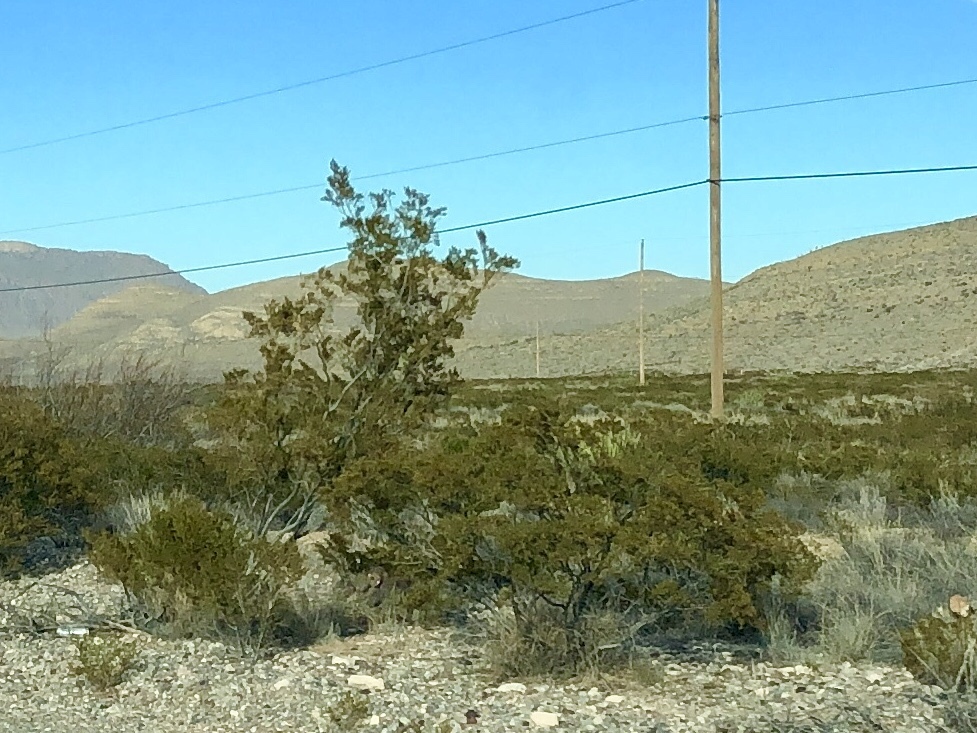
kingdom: Plantae
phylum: Tracheophyta
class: Magnoliopsida
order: Zygophyllales
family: Zygophyllaceae
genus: Larrea
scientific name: Larrea tridentata
